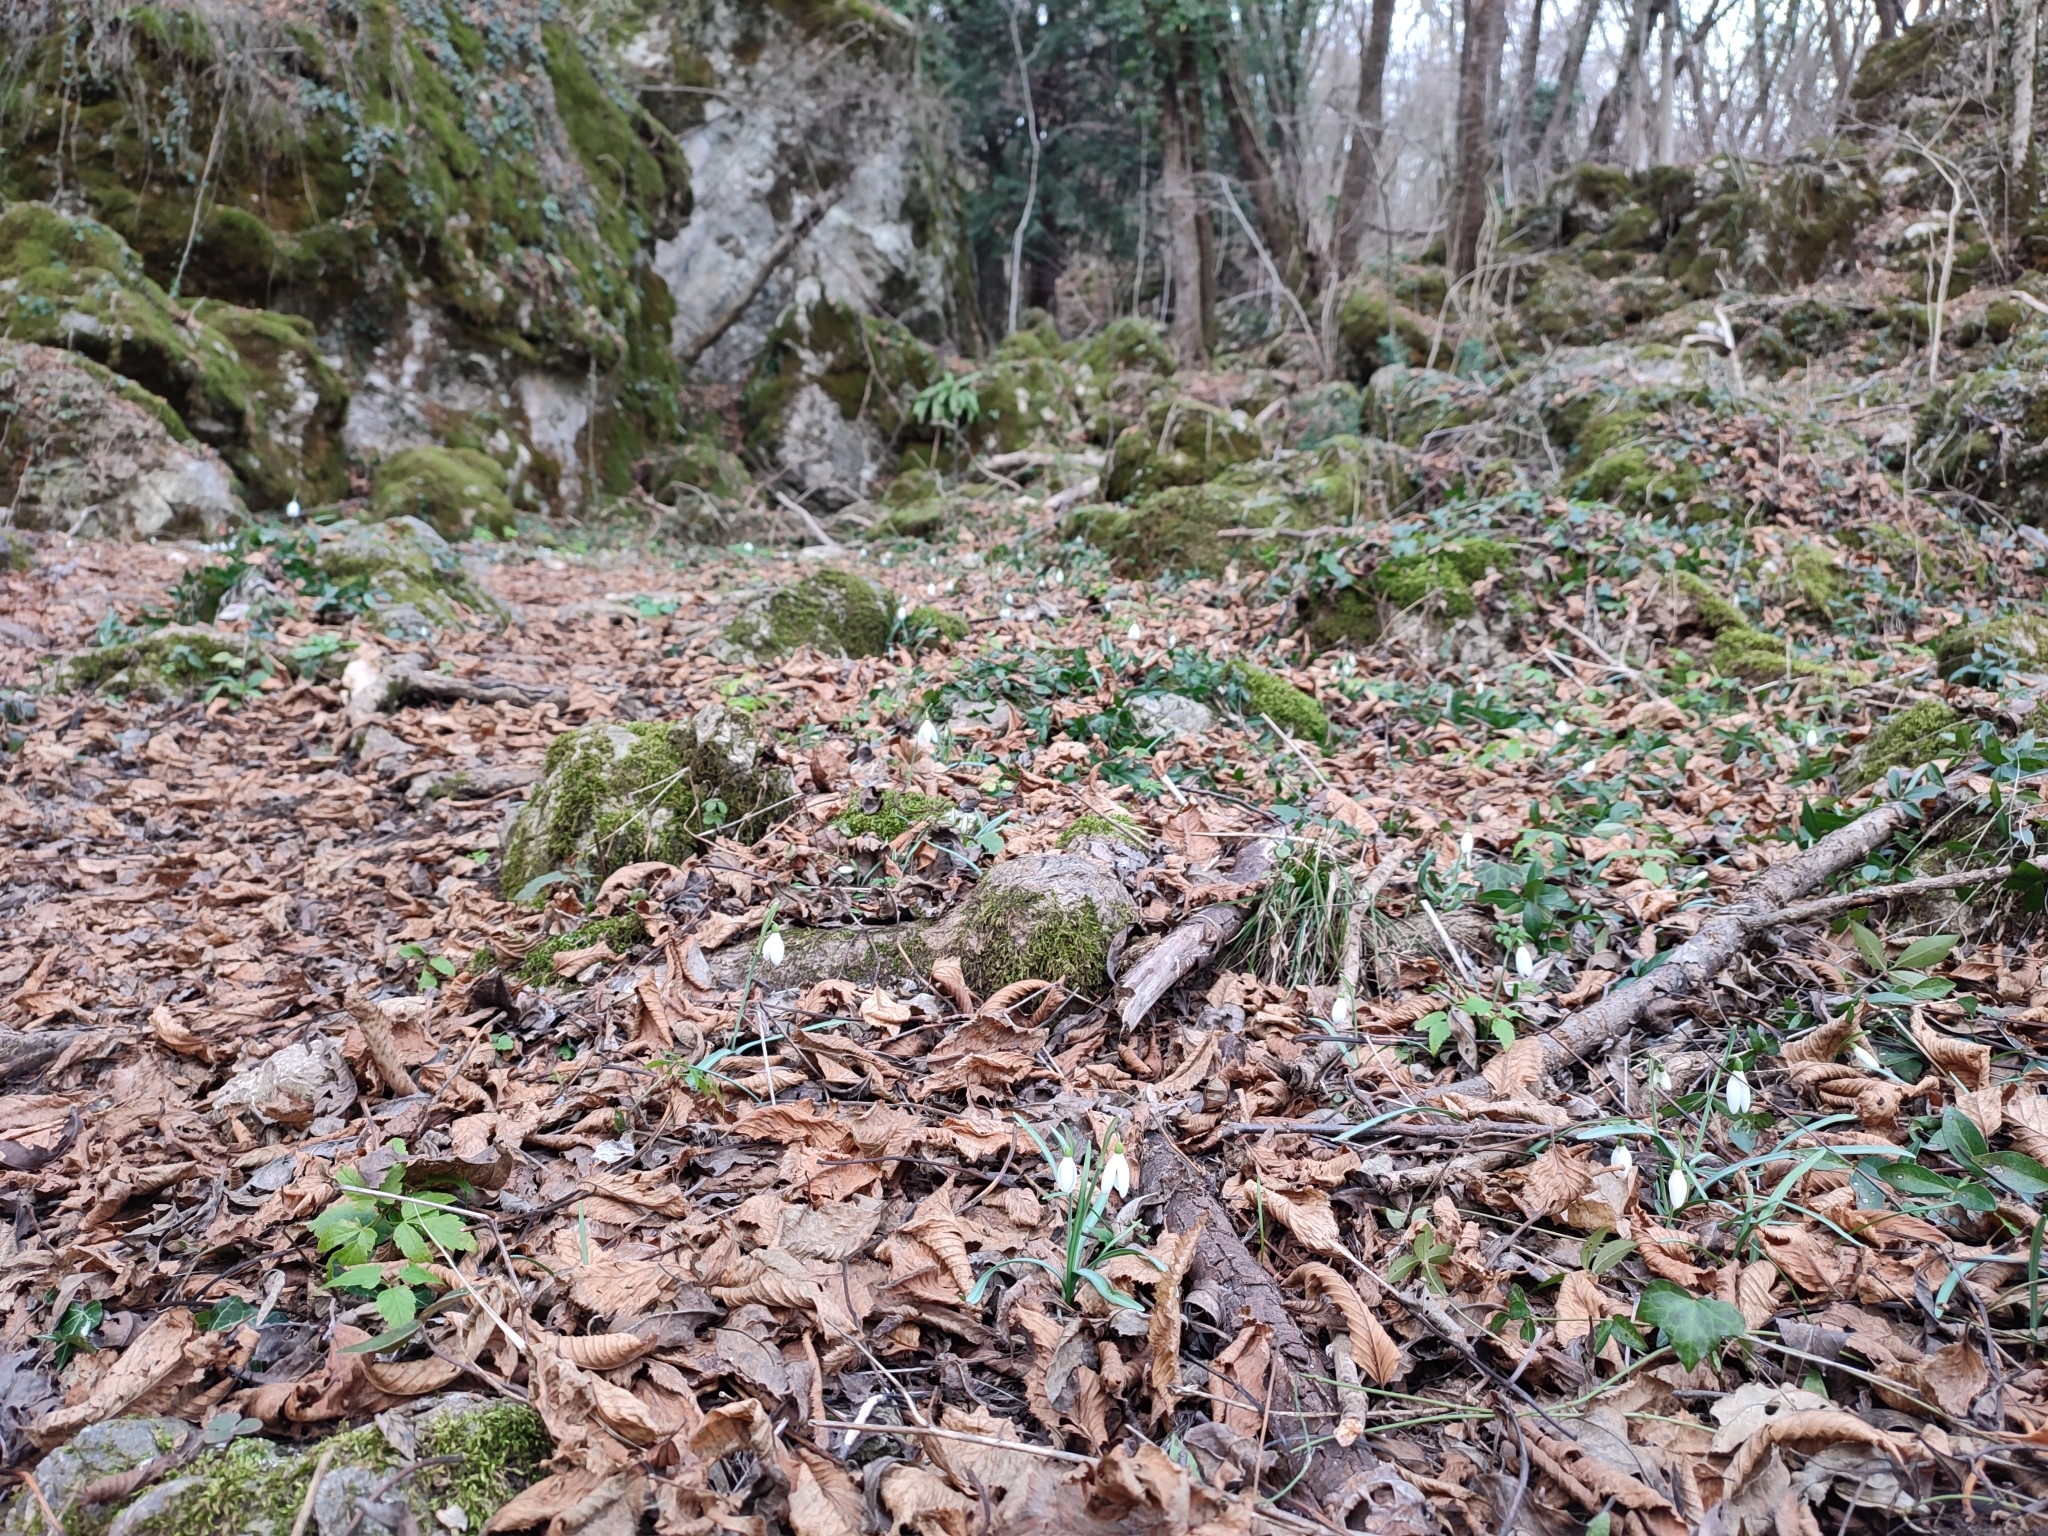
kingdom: Plantae
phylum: Tracheophyta
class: Liliopsida
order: Asparagales
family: Amaryllidaceae
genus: Galanthus
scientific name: Galanthus nivalis
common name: Snowdrop
